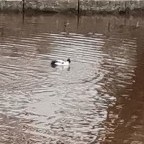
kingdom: Animalia
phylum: Chordata
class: Aves
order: Anseriformes
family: Anatidae
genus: Bucephala
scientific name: Bucephala clangula
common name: Common goldeneye
